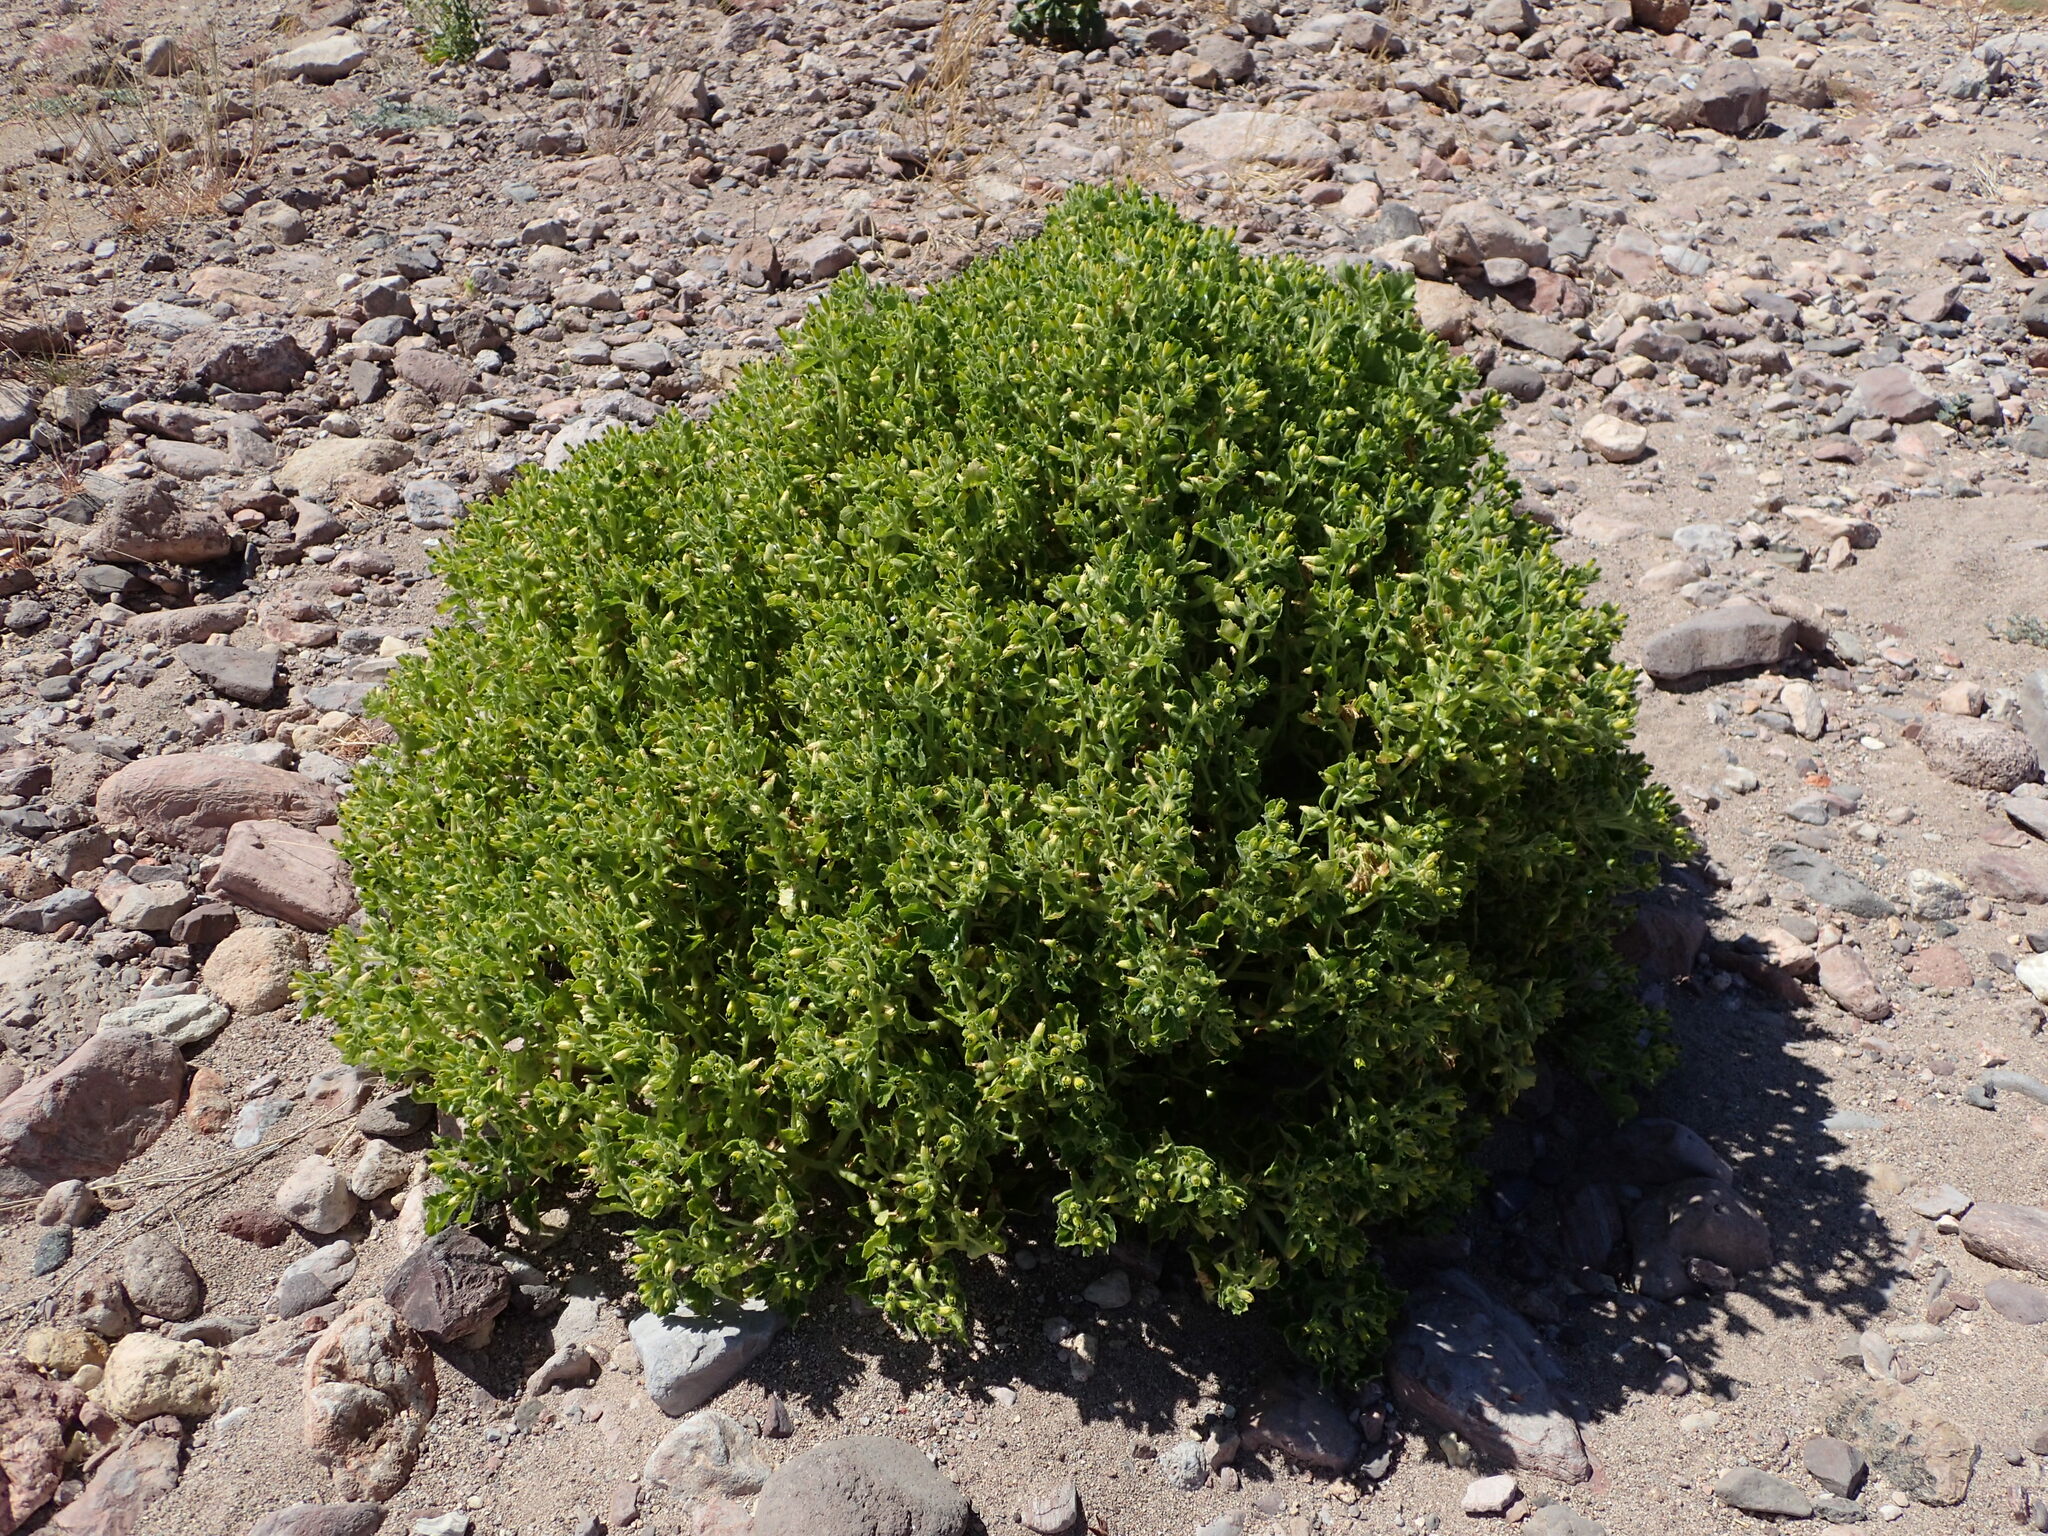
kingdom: Plantae
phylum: Tracheophyta
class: Magnoliopsida
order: Cornales
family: Loasaceae
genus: Eucnide
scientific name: Eucnide rupestris
